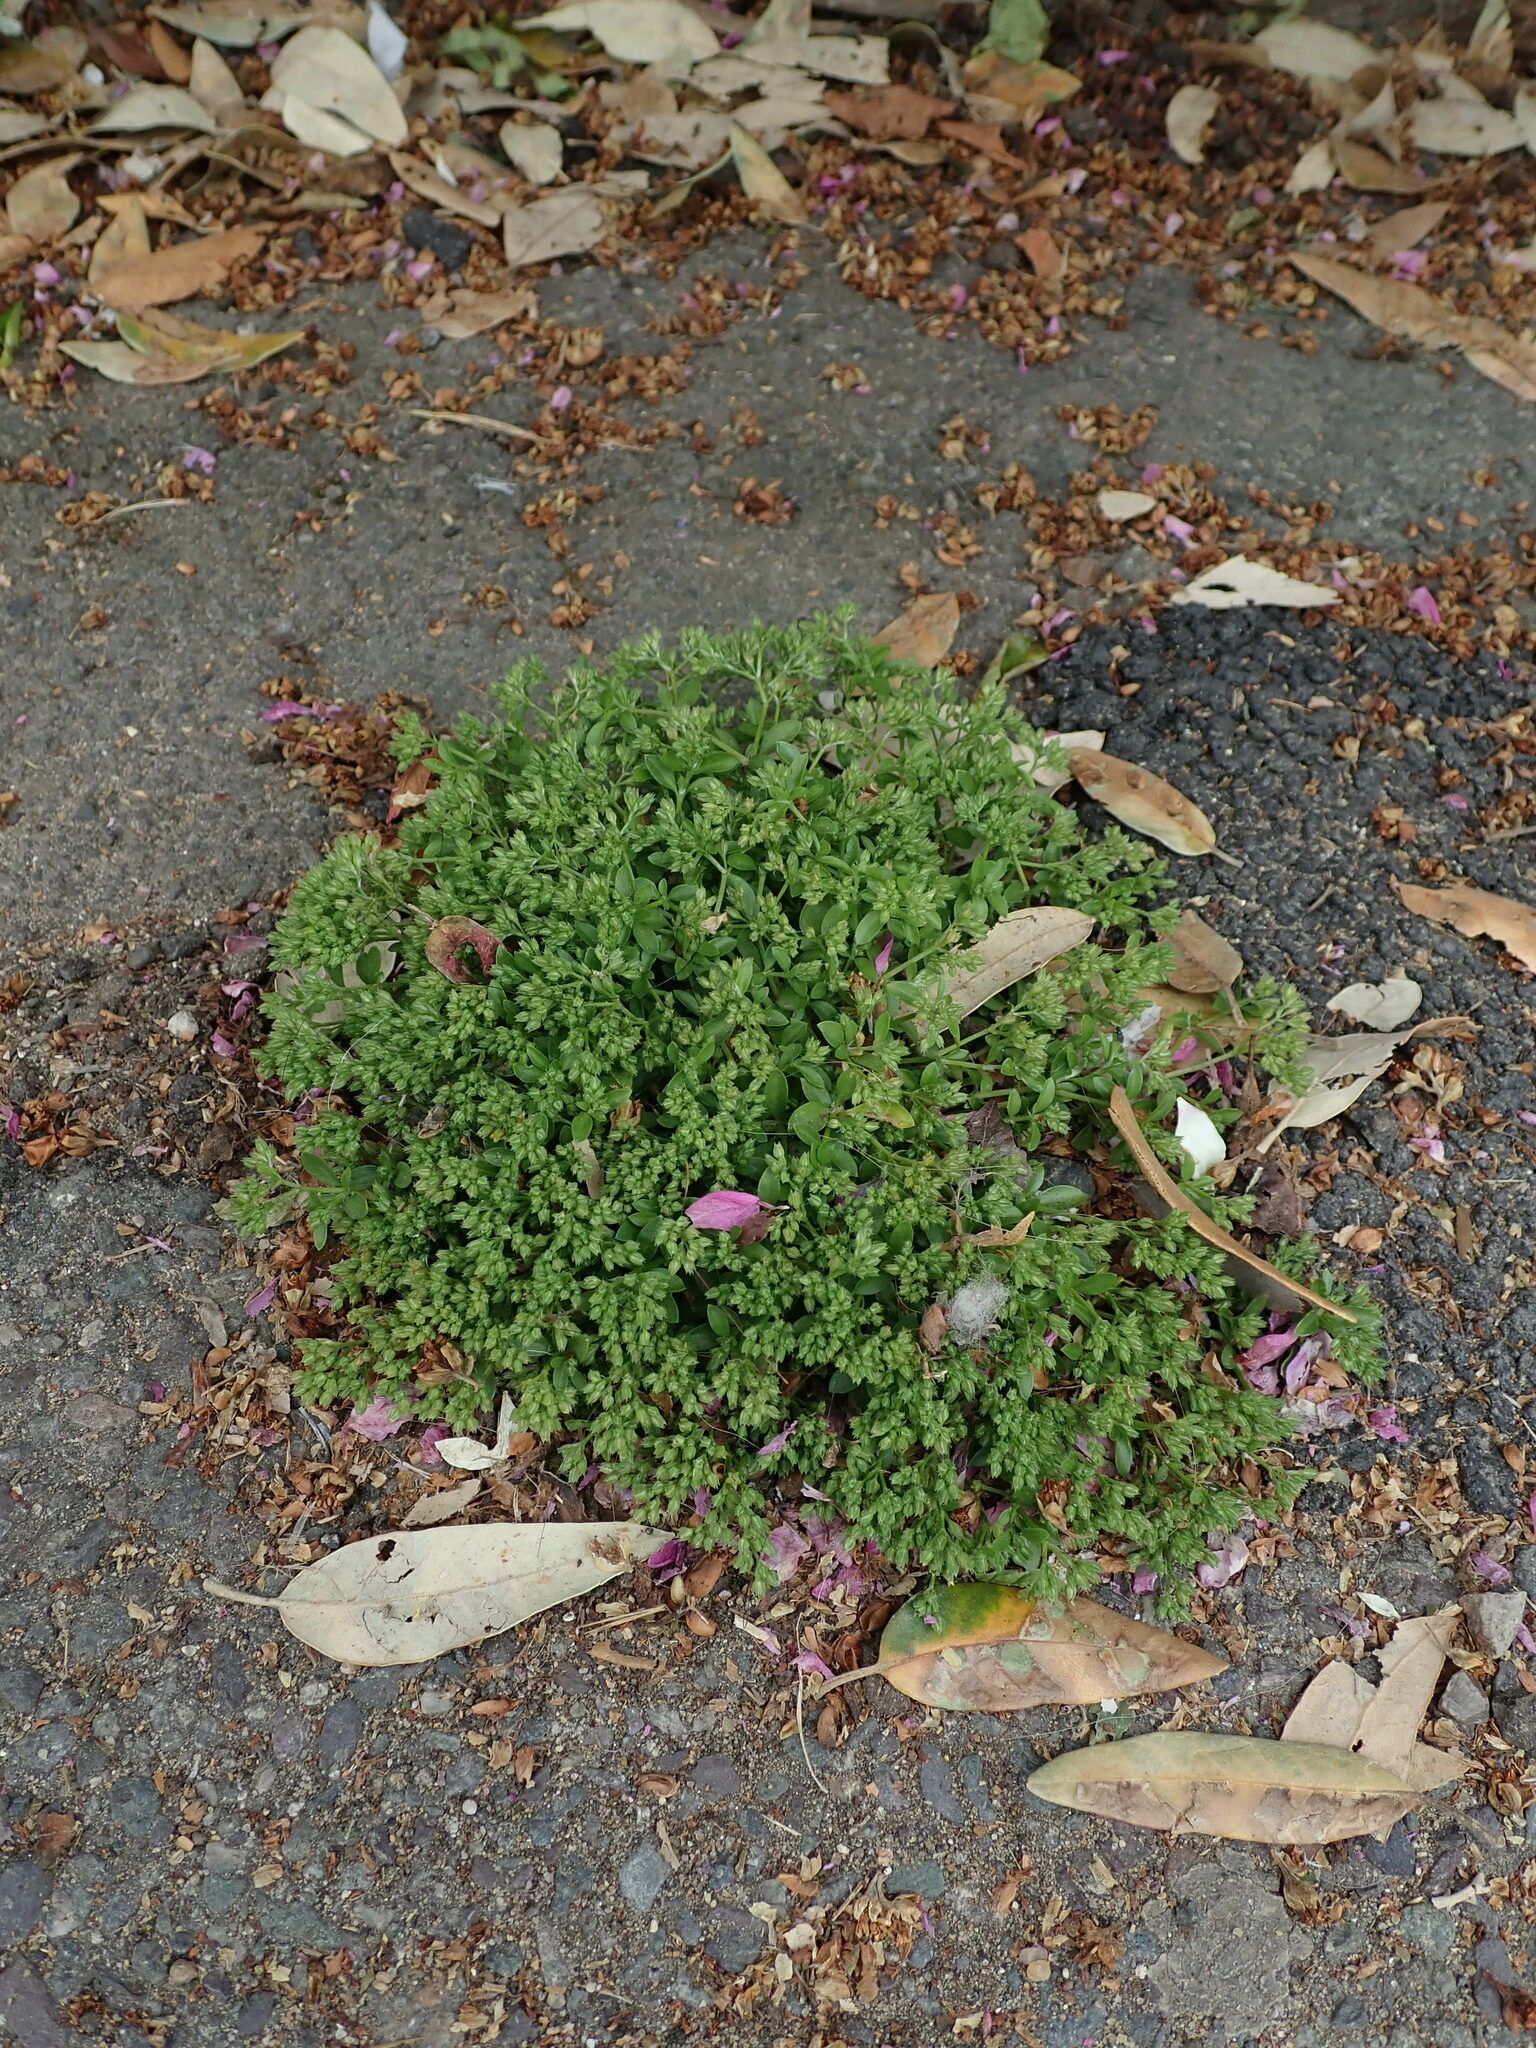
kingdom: Plantae
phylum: Tracheophyta
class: Magnoliopsida
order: Caryophyllales
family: Caryophyllaceae
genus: Polycarpon
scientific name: Polycarpon tetraphyllum
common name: Four-leaved all-seed
